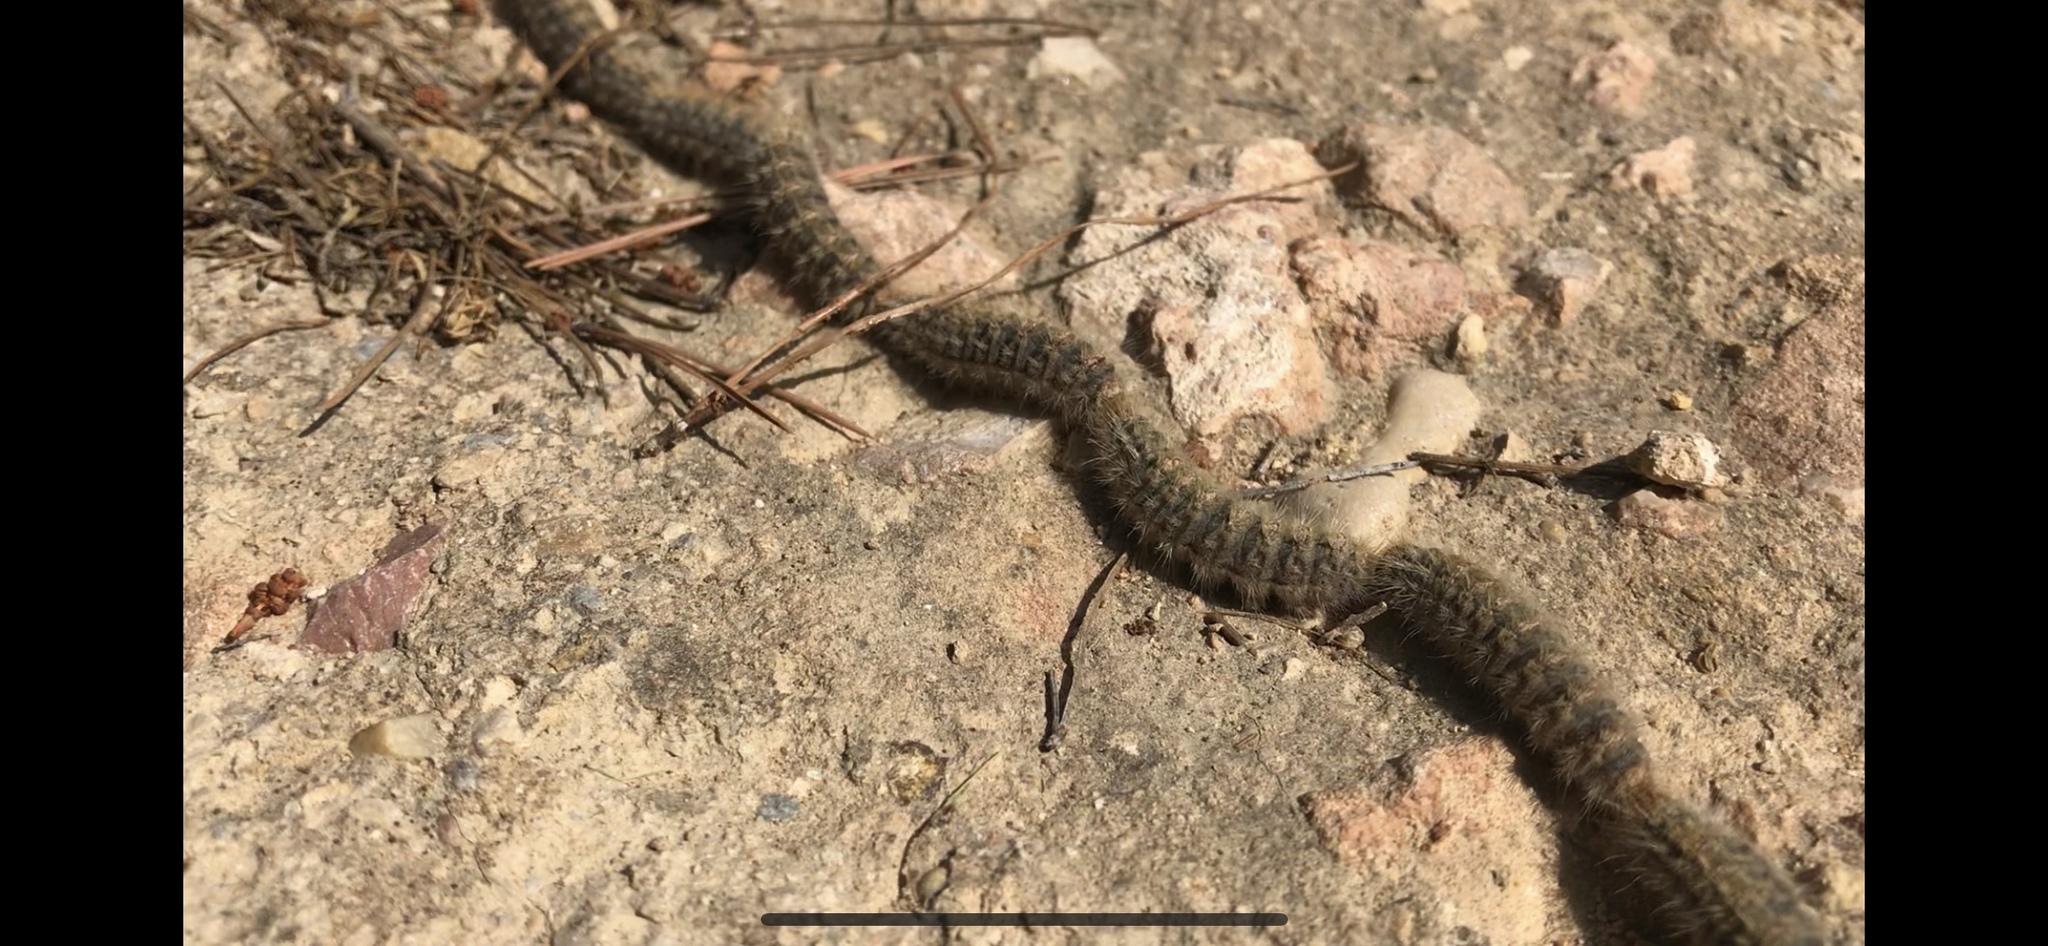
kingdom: Animalia
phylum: Arthropoda
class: Insecta
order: Lepidoptera
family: Notodontidae
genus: Thaumetopoea
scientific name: Thaumetopoea pityocampa
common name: Pine processionary
